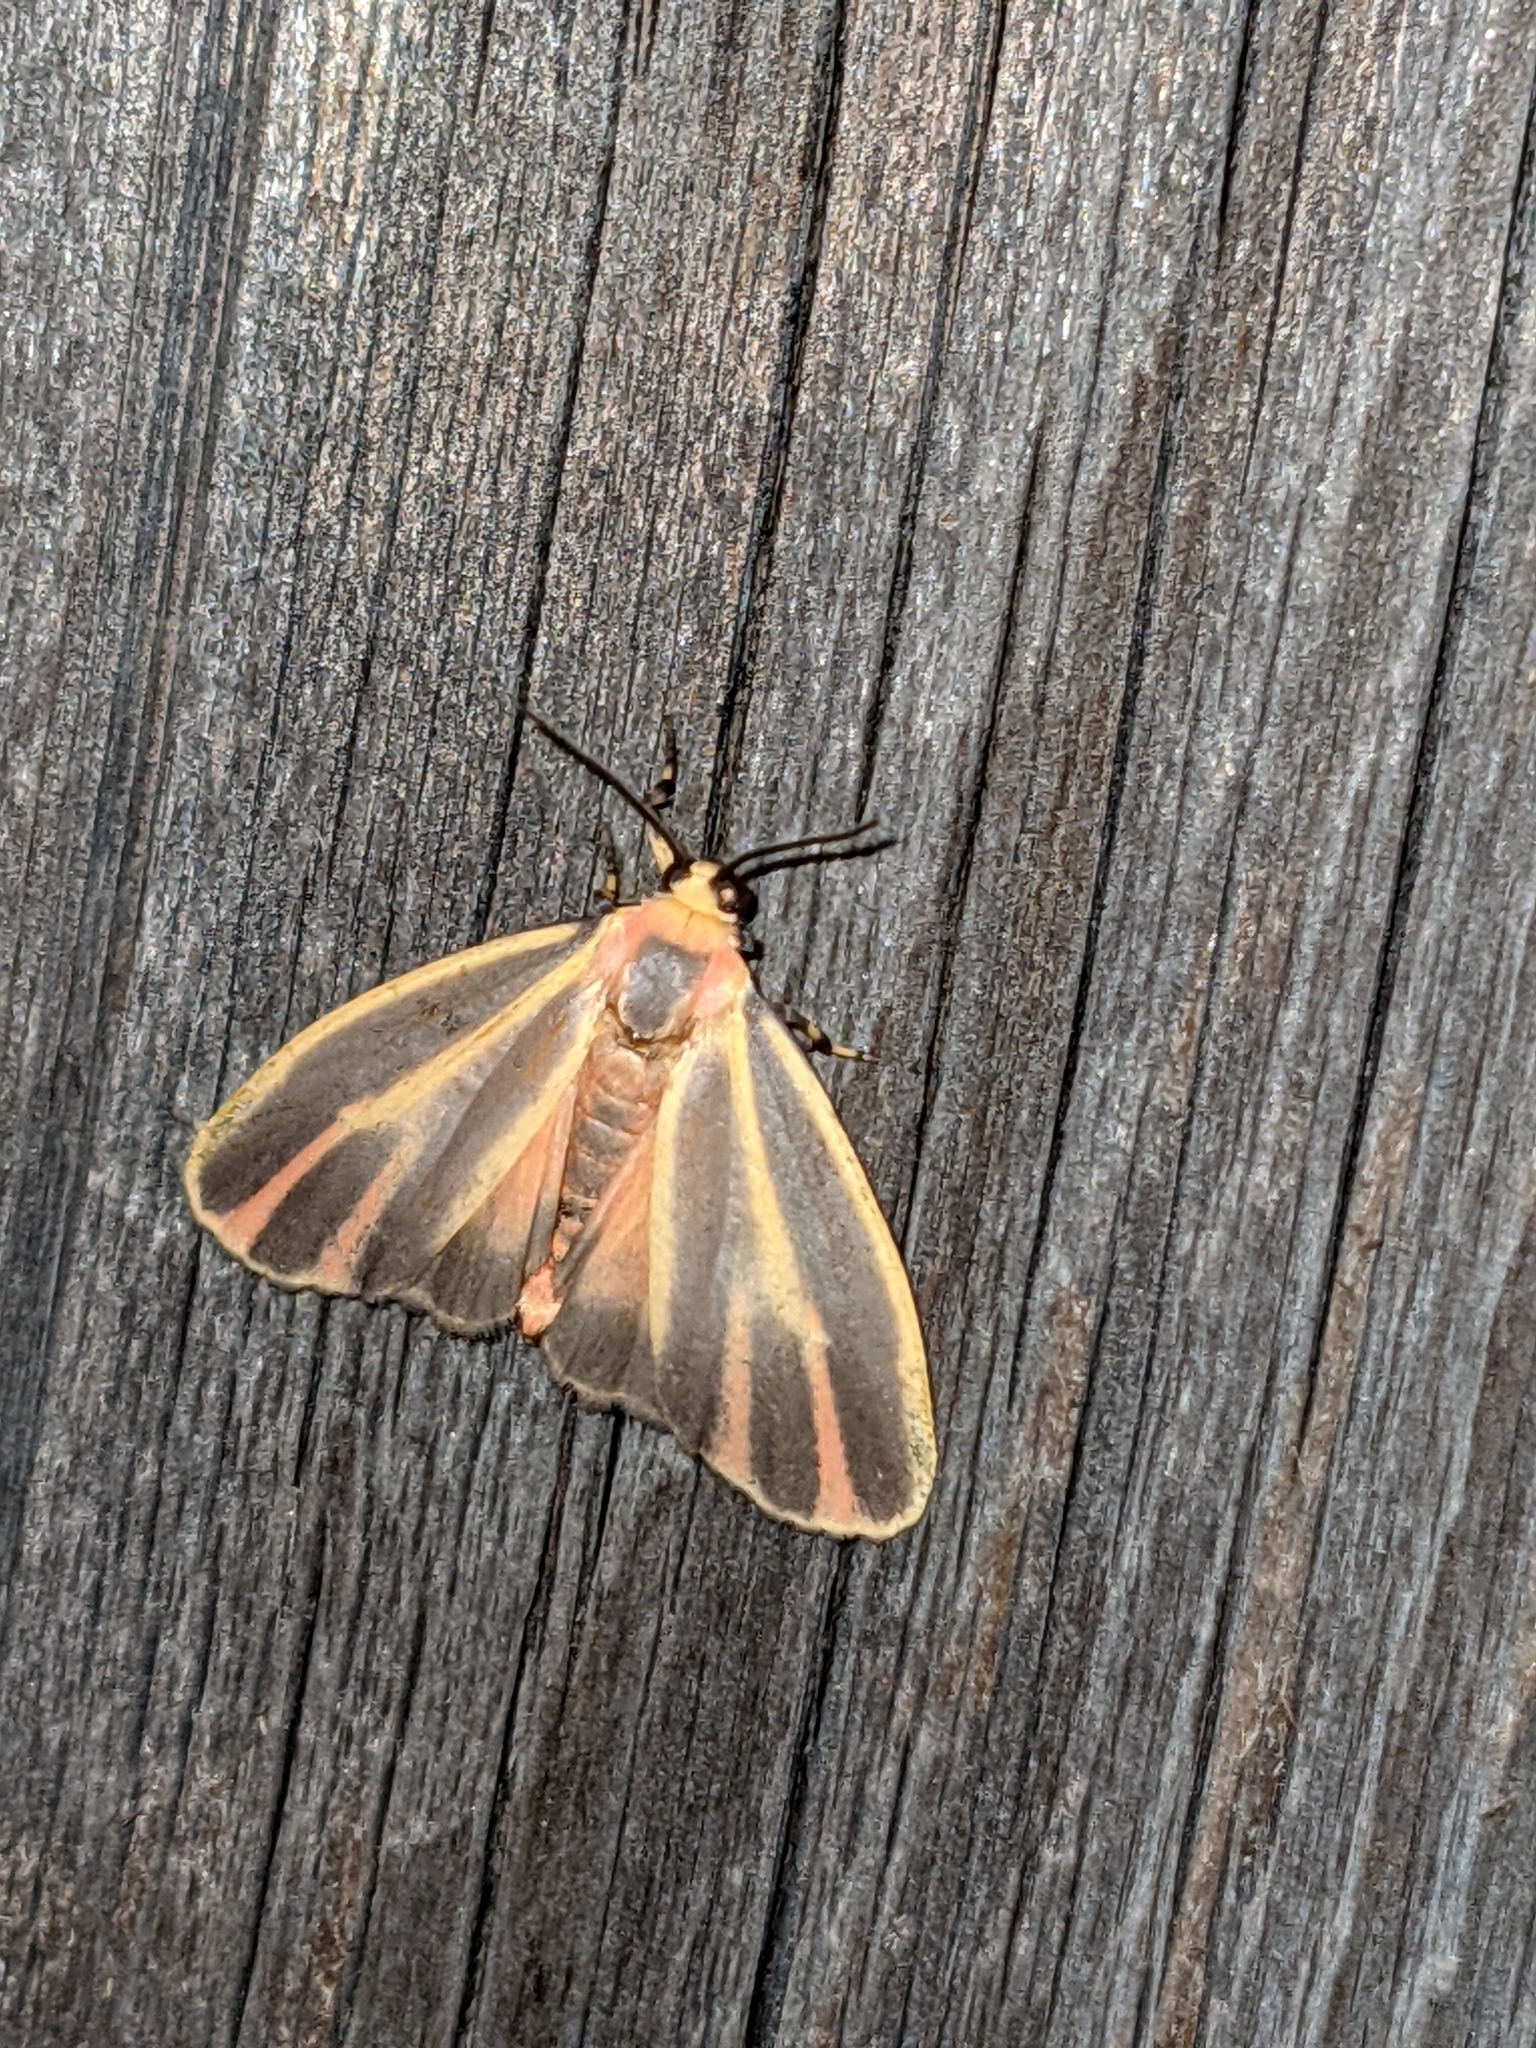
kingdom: Animalia
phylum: Arthropoda
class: Insecta
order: Lepidoptera
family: Erebidae
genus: Hypoprepia
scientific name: Hypoprepia fucosa
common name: Painted lichen moth
